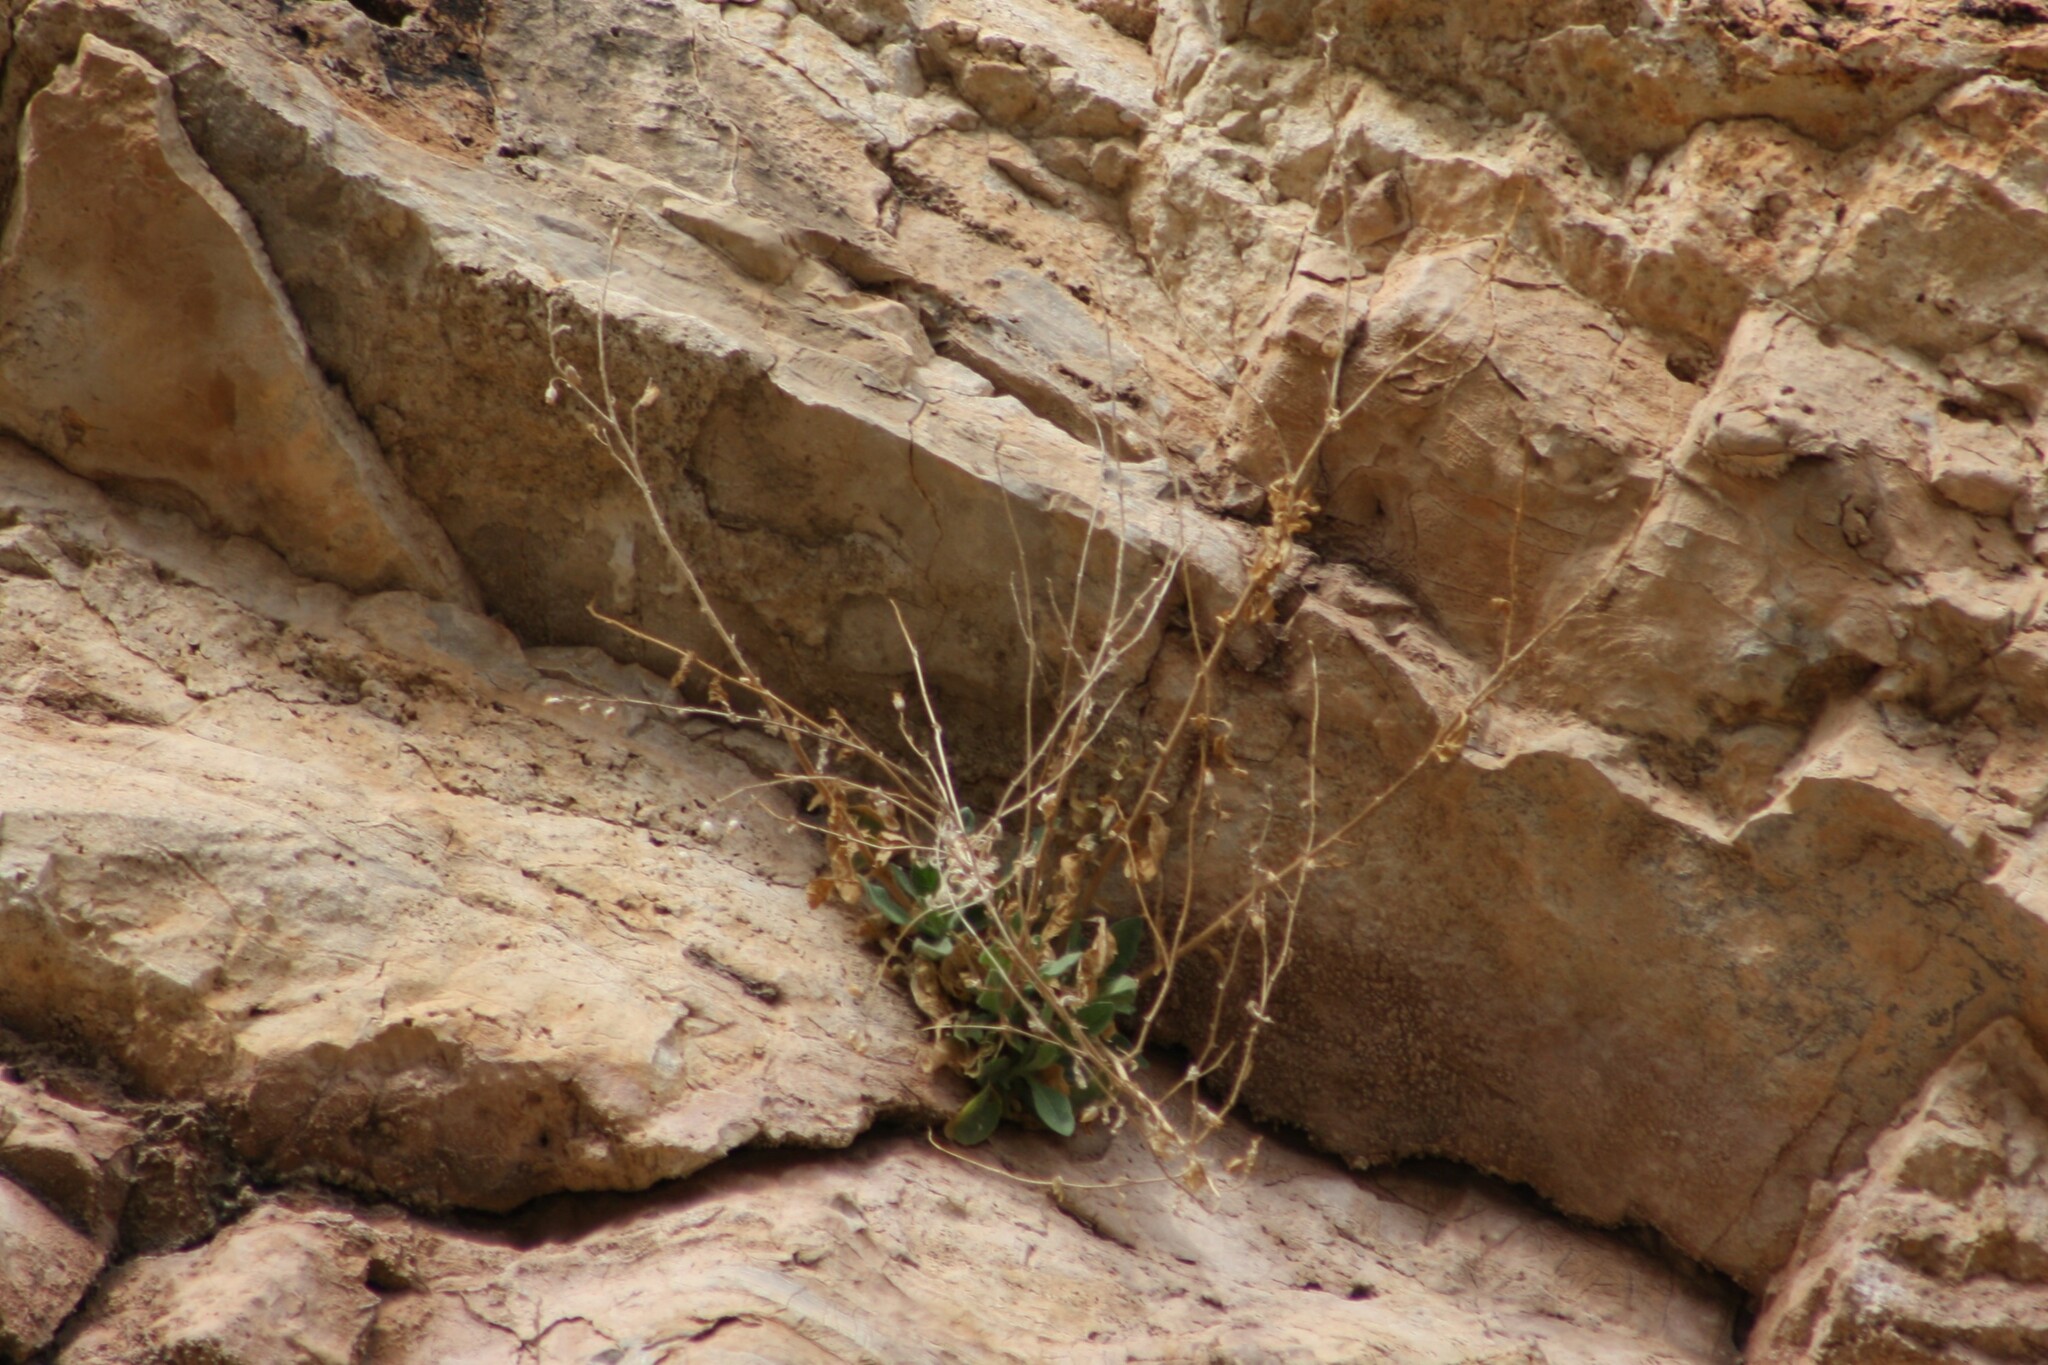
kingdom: Plantae
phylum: Tracheophyta
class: Magnoliopsida
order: Solanales
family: Solanaceae
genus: Nicotiana
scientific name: Nicotiana obtusifolia
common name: Desert tobacco
